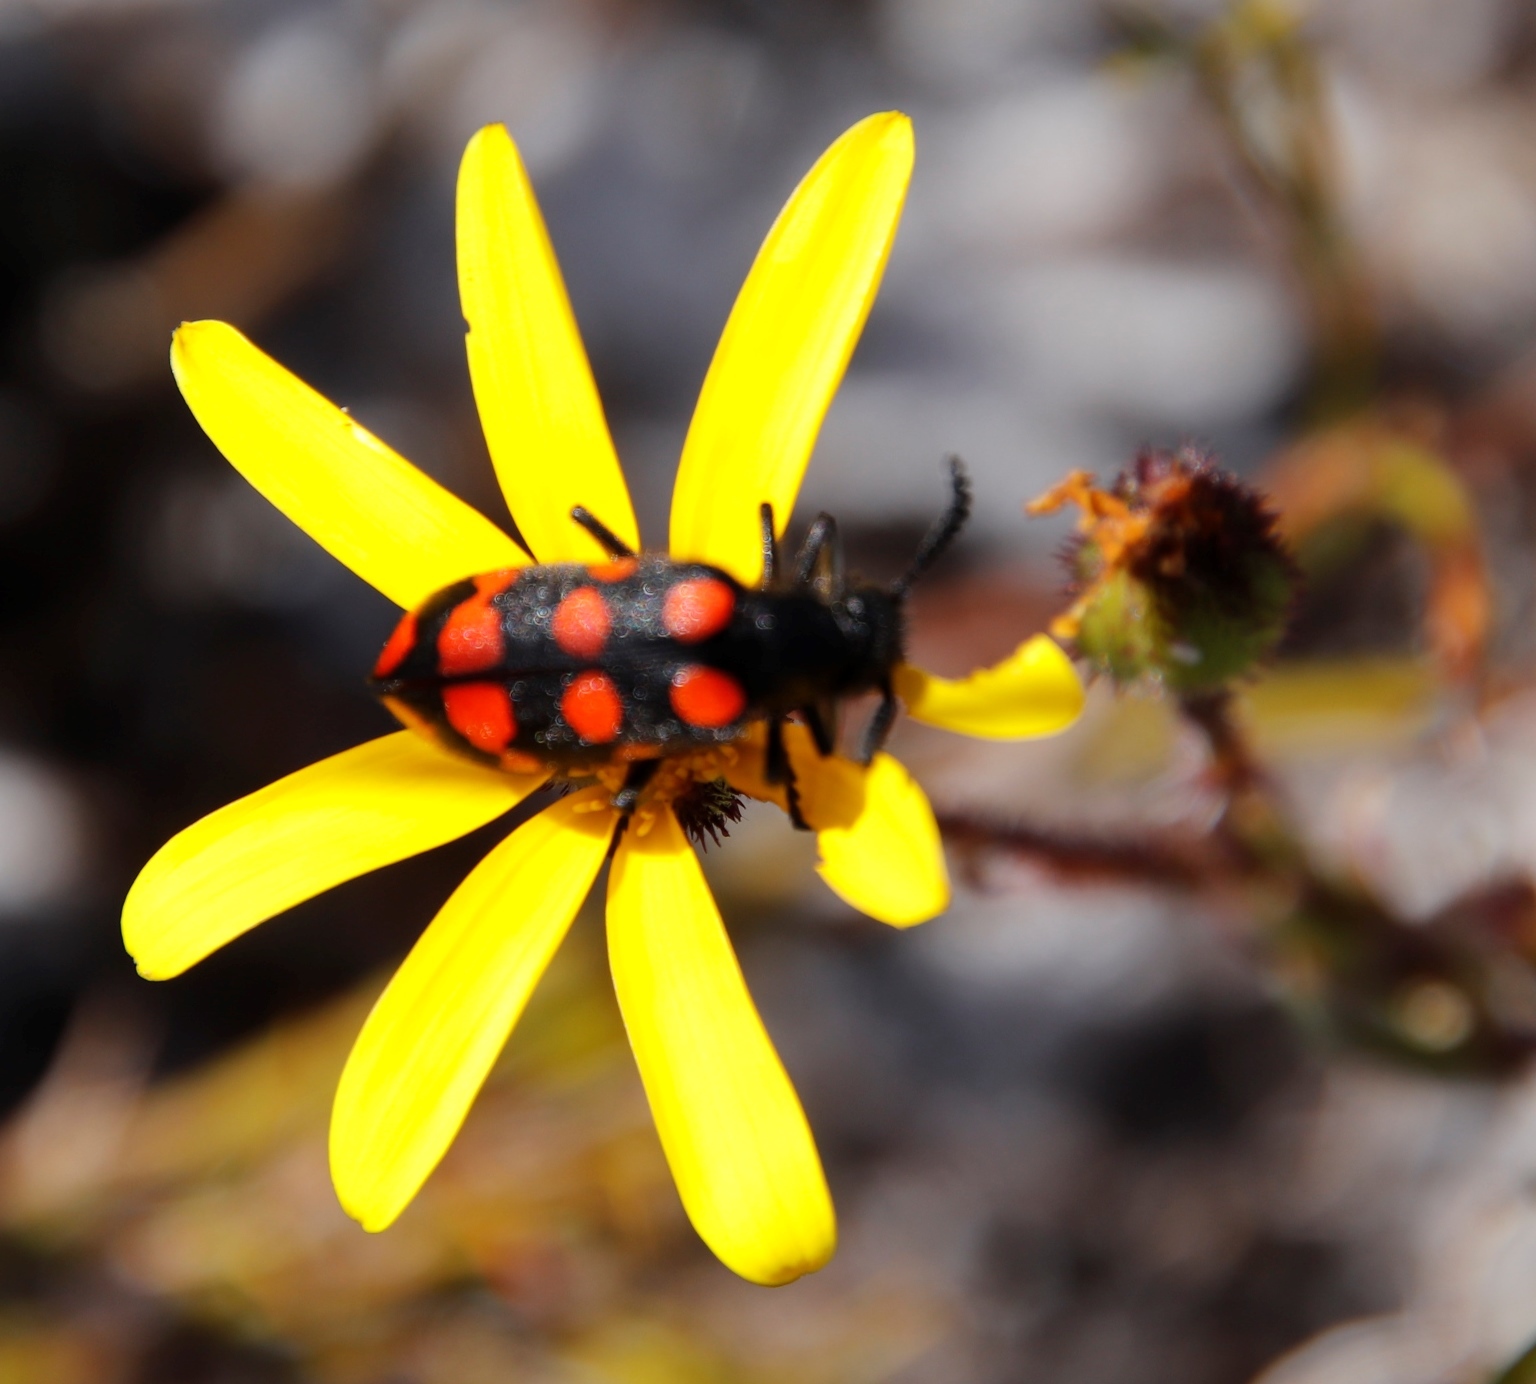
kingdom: Animalia
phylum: Arthropoda
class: Insecta
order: Coleoptera
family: Meloidae
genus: Ceroctis
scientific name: Ceroctis gyllenhalli
